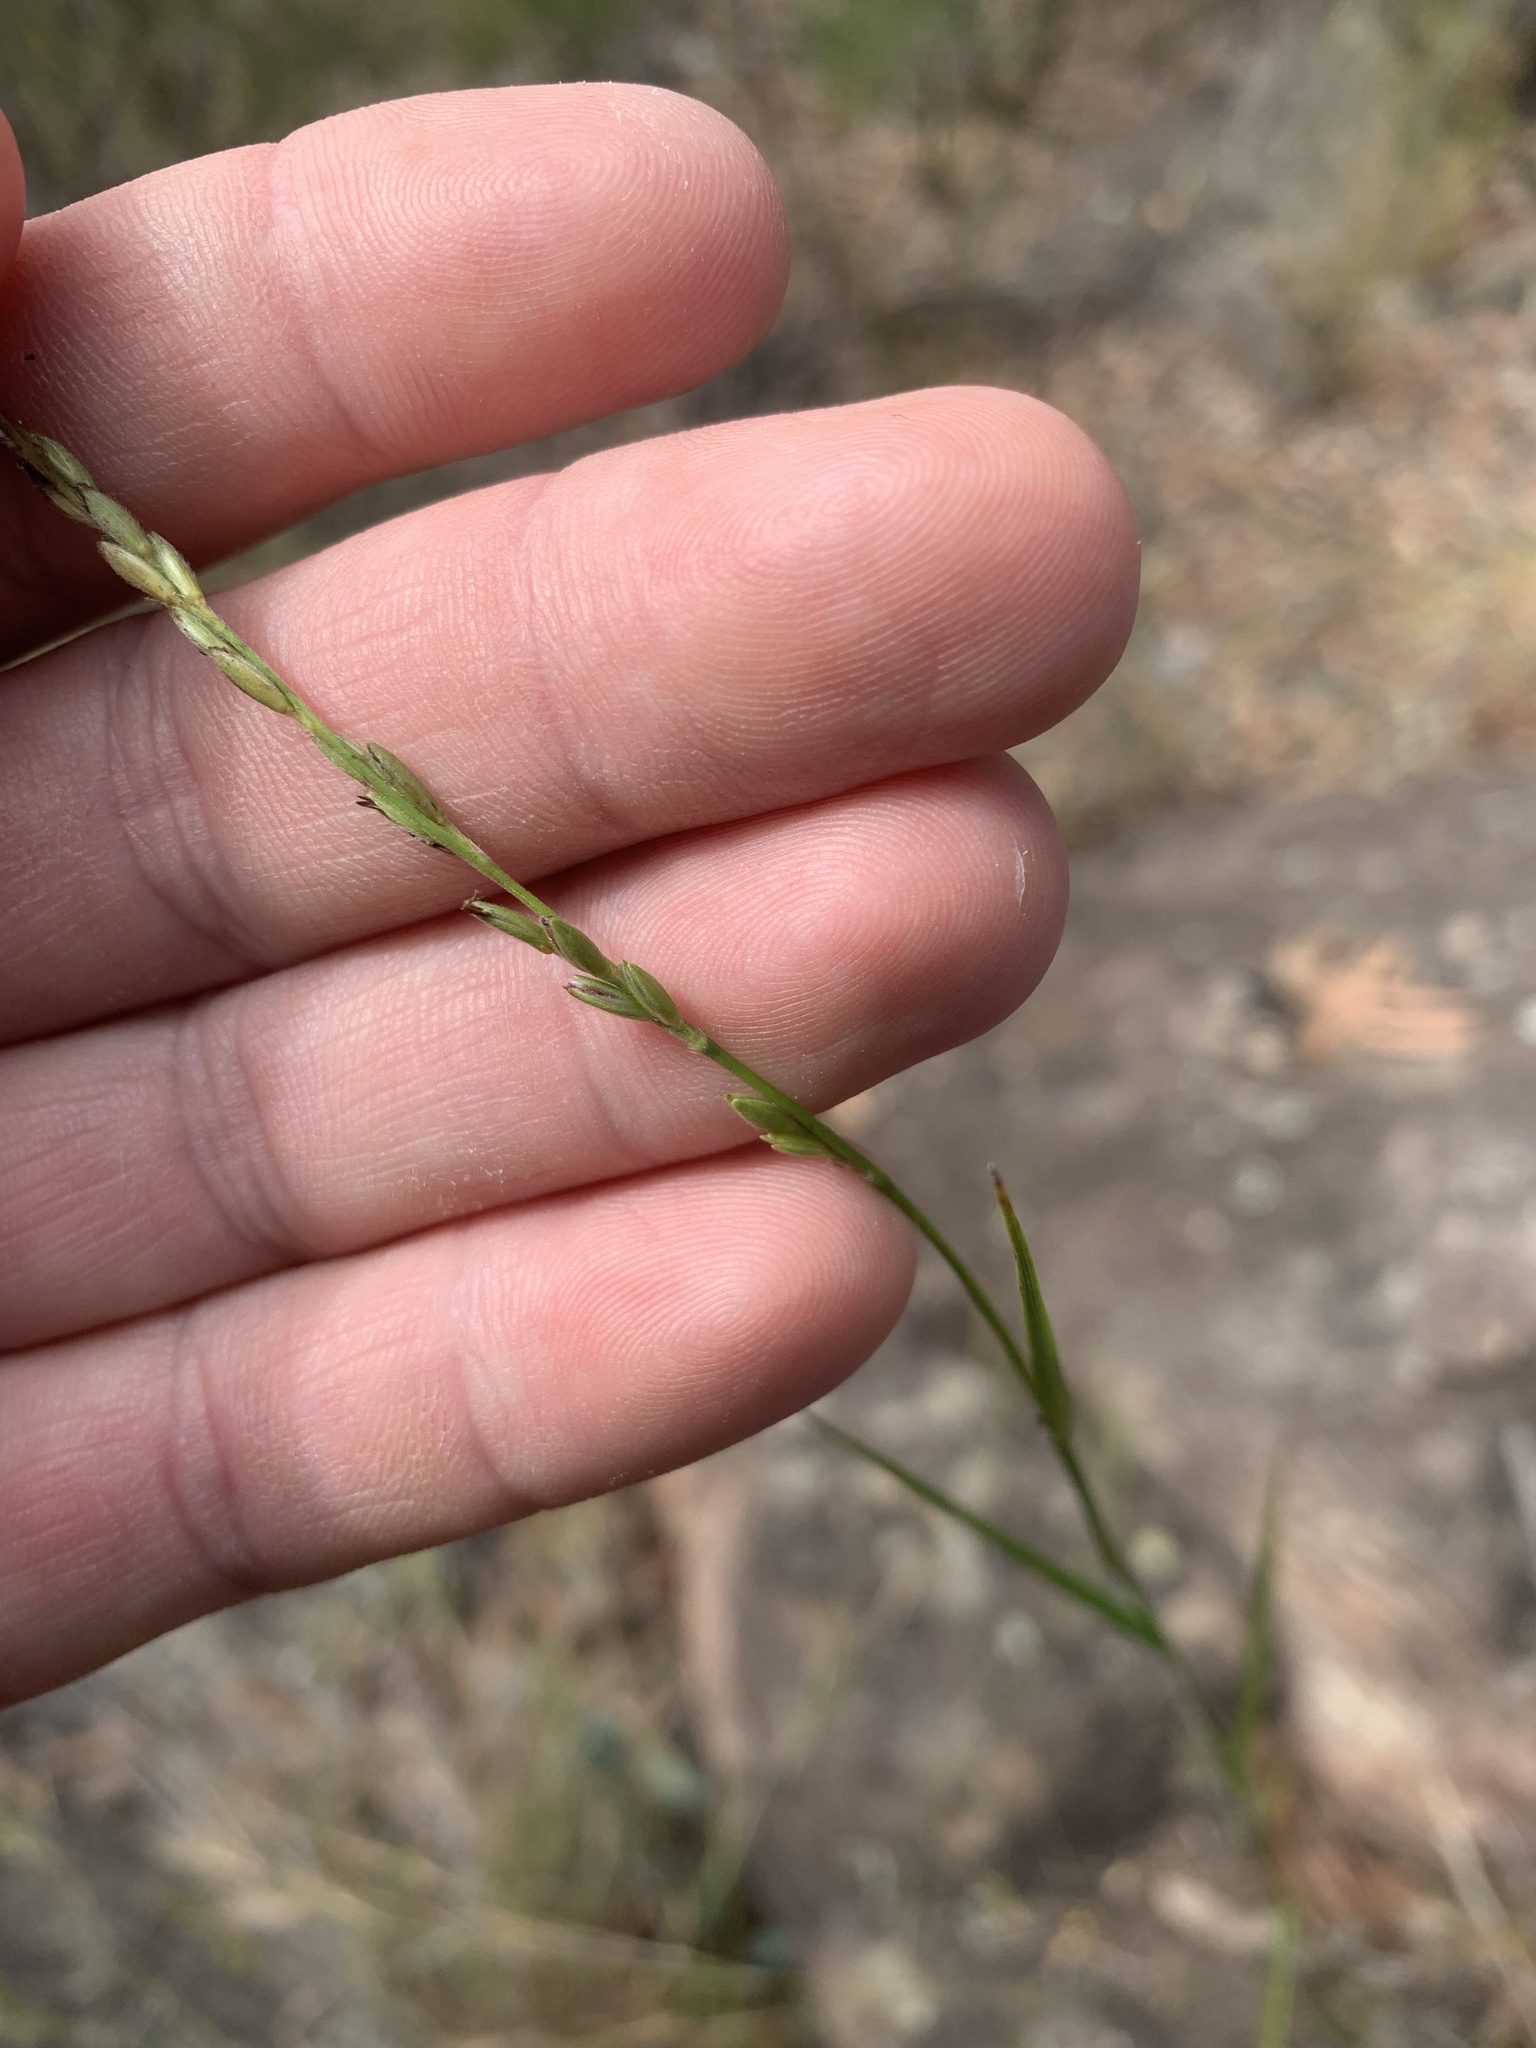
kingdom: Plantae
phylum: Tracheophyta
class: Liliopsida
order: Poales
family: Poaceae
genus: Dimorphochloa
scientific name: Dimorphochloa rigida
